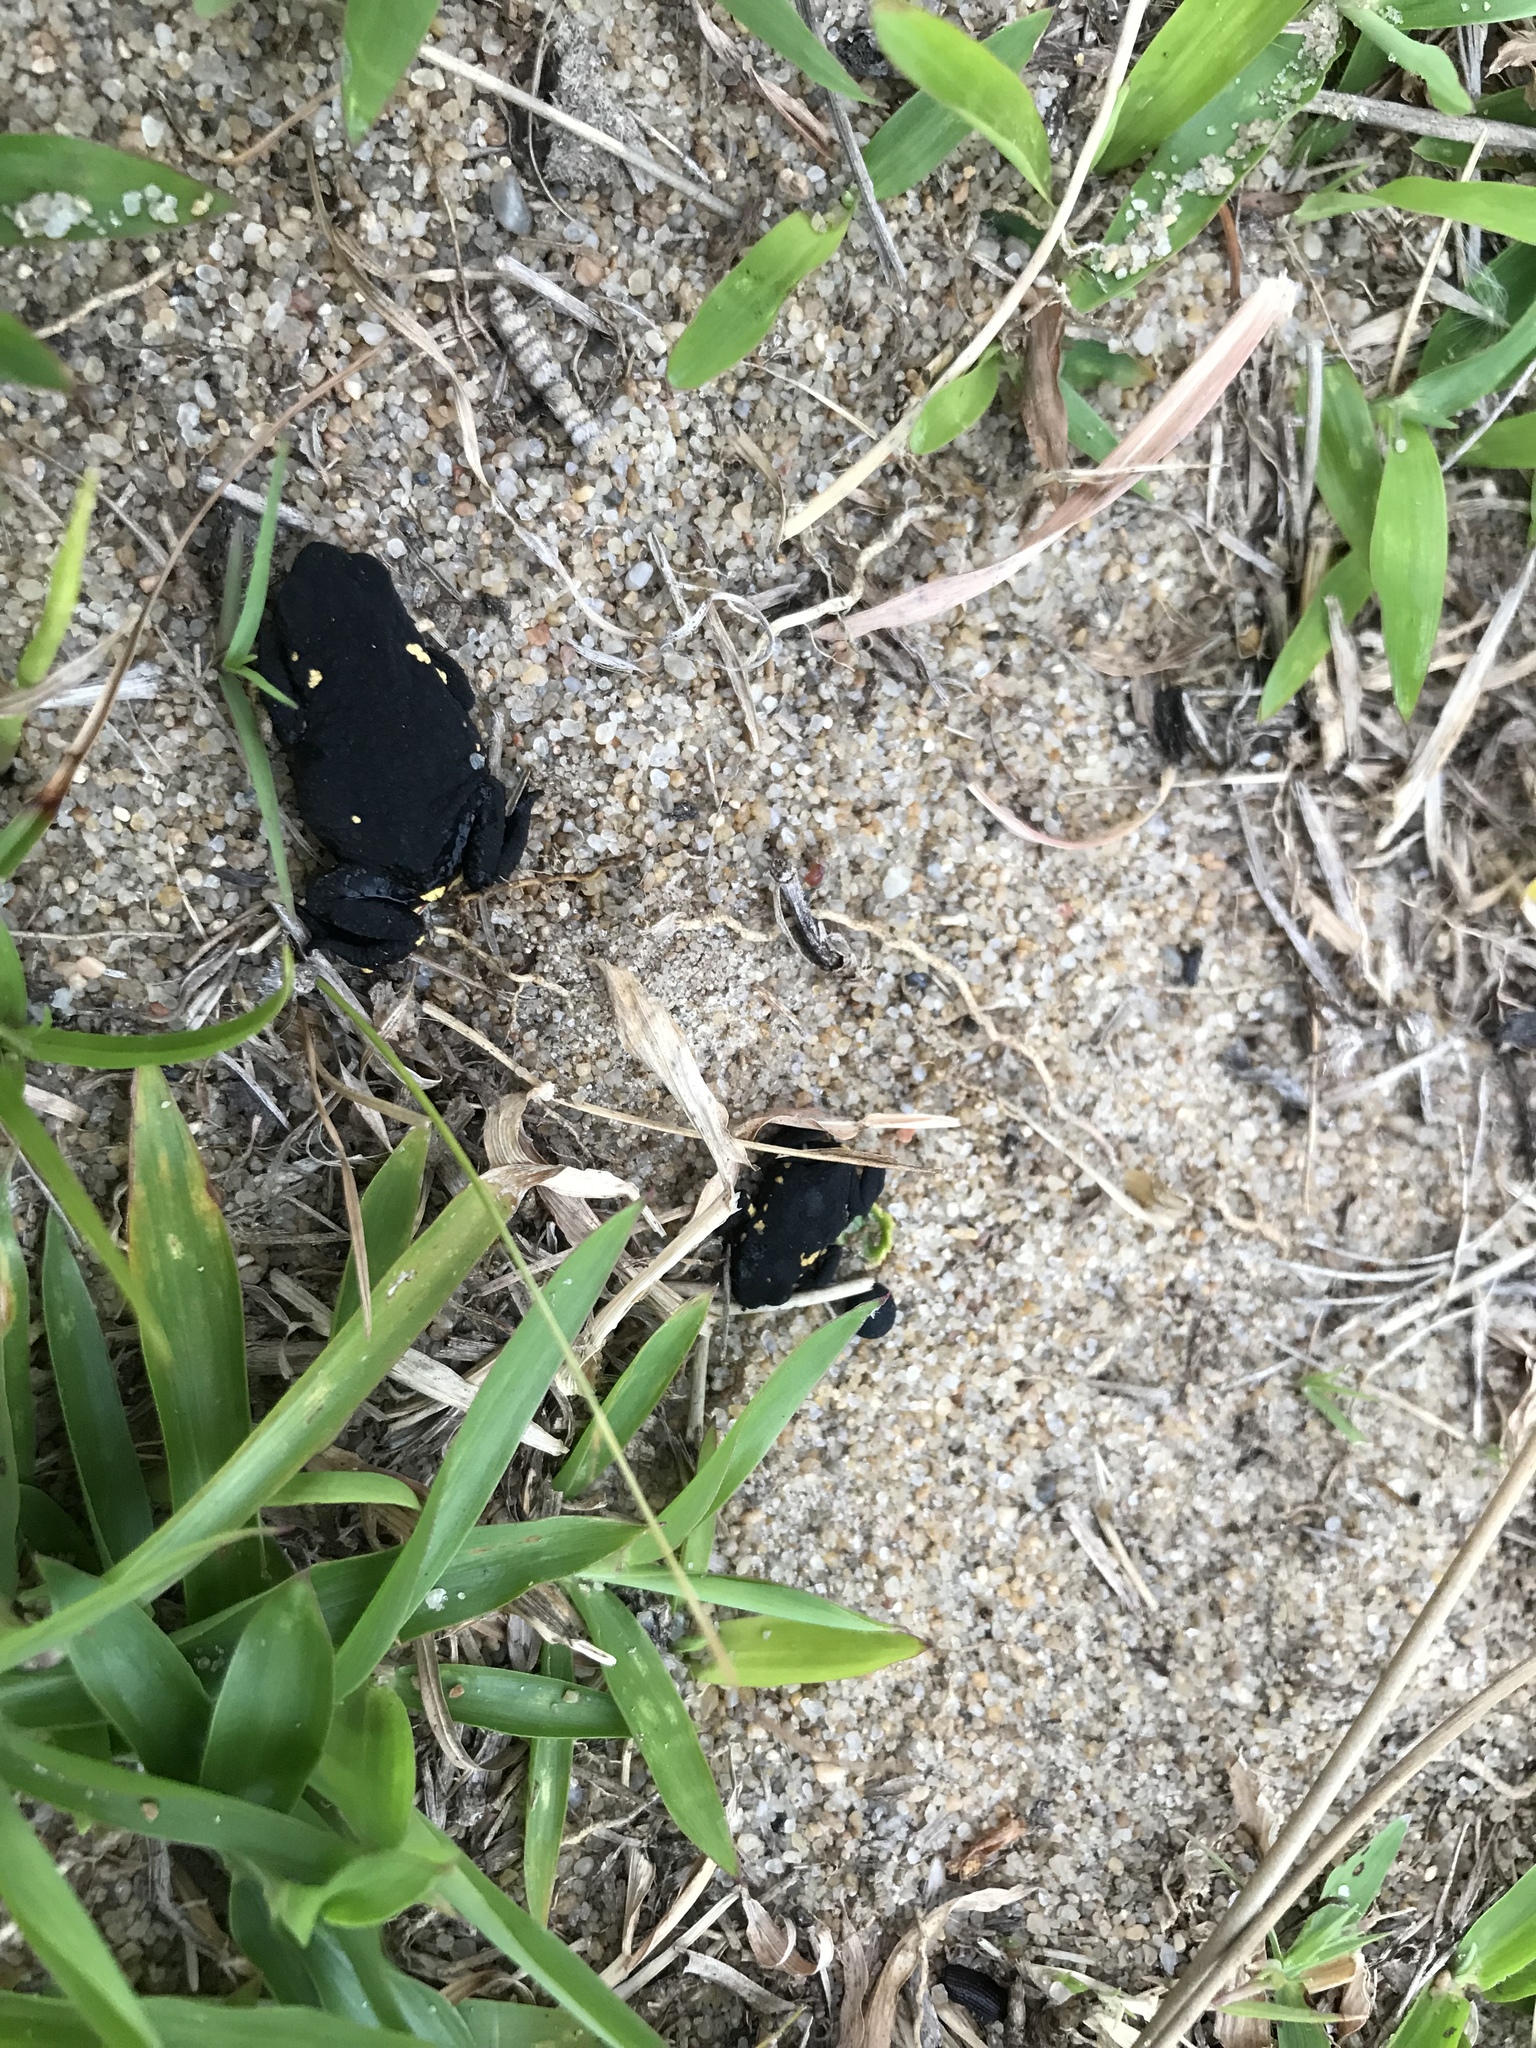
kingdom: Animalia
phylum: Chordata
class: Amphibia
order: Anura
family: Bufonidae
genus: Melanophryniscus
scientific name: Melanophryniscus montevidensis
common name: Montevideo redbelly toad
